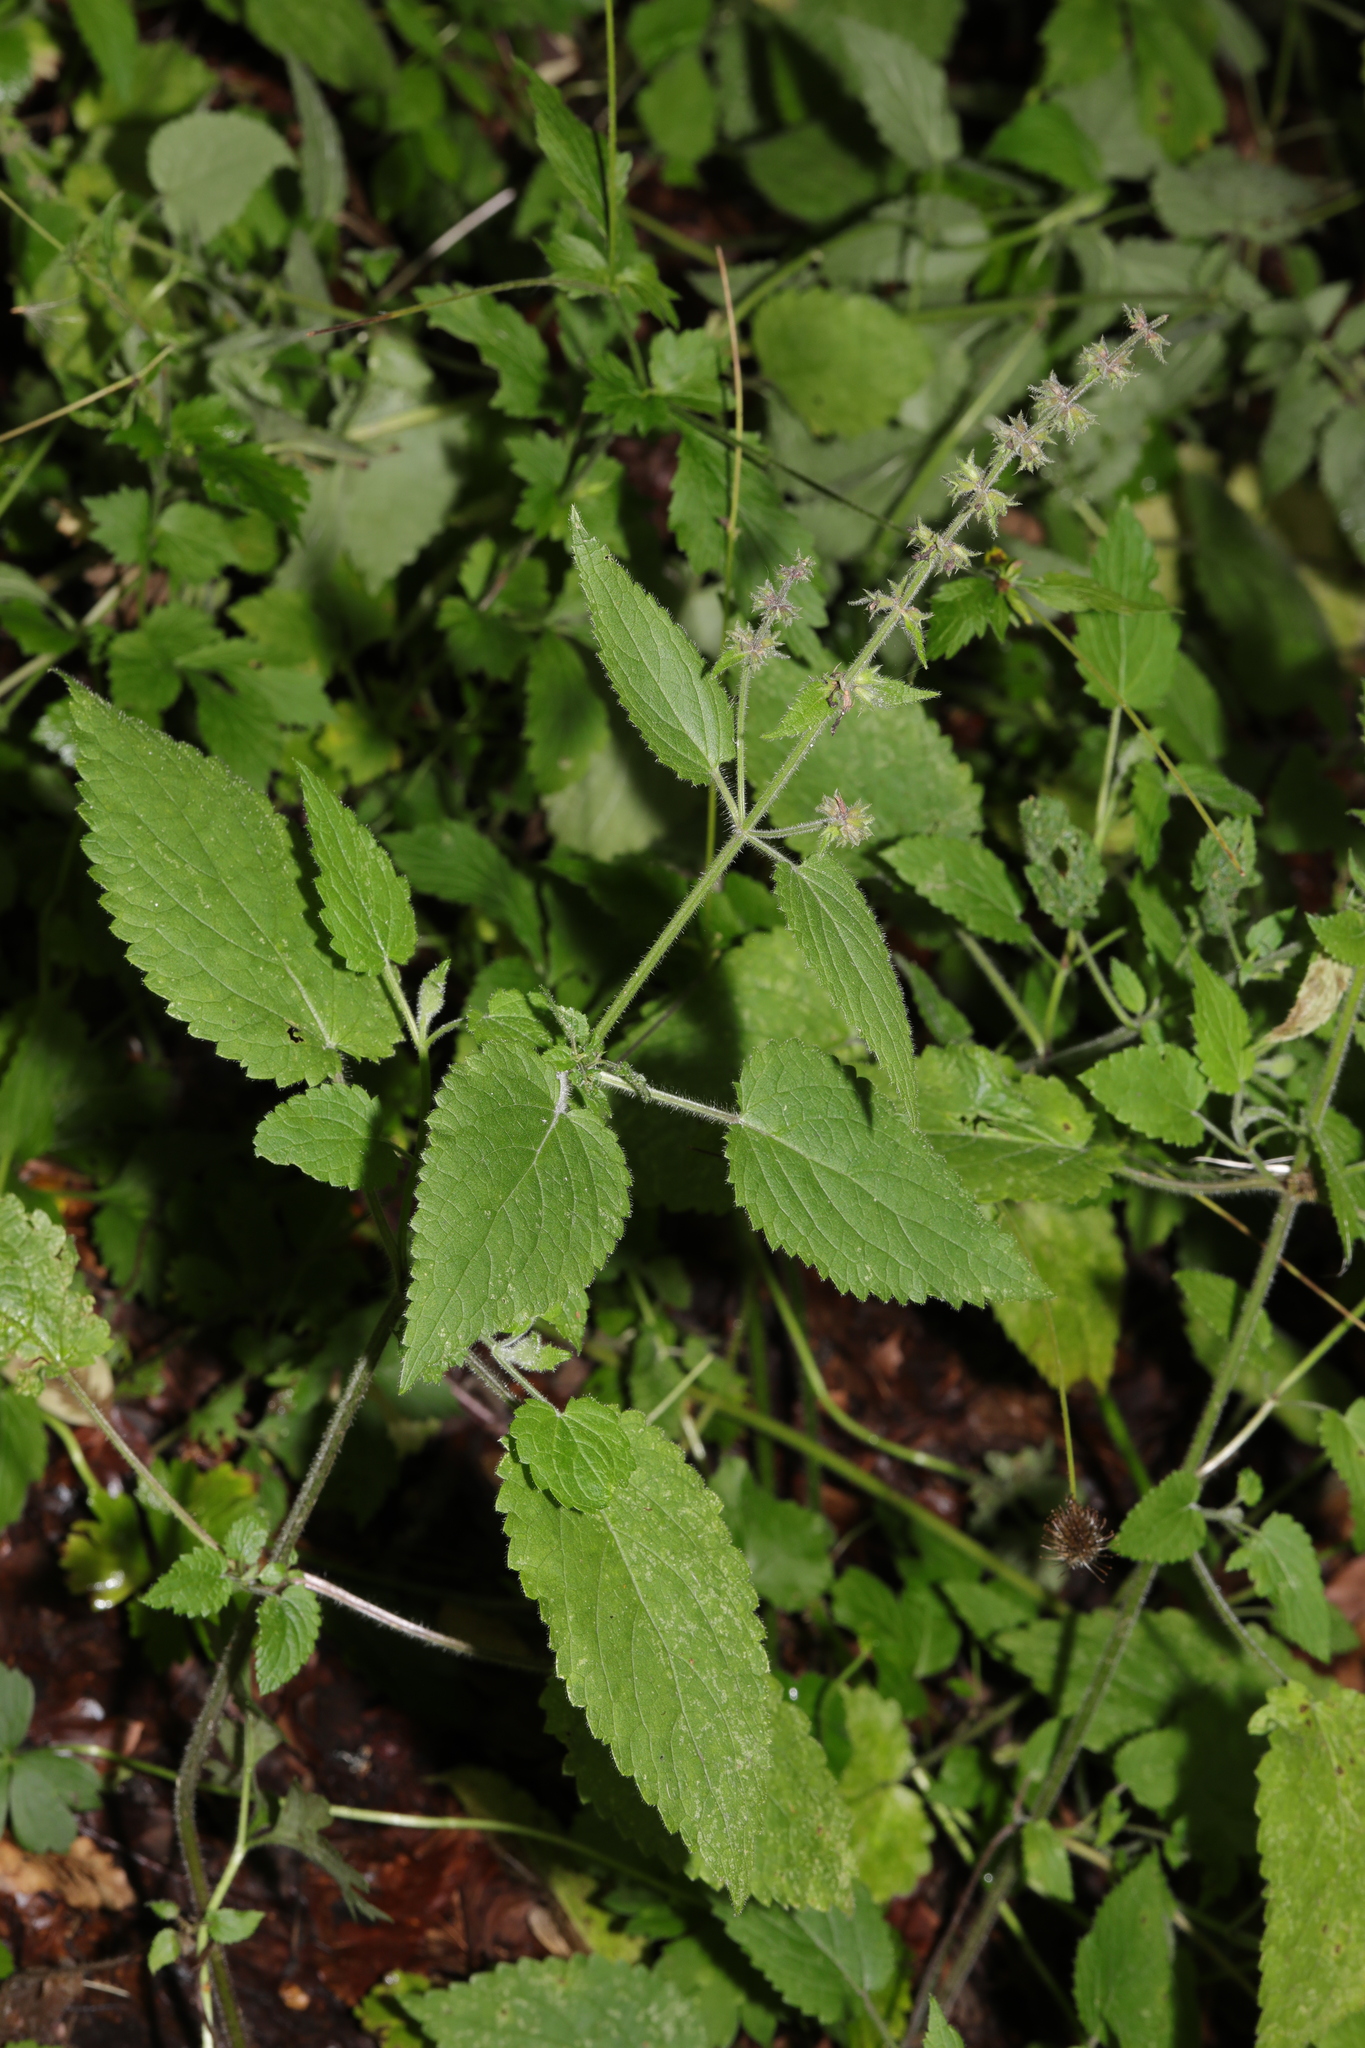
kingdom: Plantae
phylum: Tracheophyta
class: Magnoliopsida
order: Lamiales
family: Lamiaceae
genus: Stachys
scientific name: Stachys sylvatica
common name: Hedge woundwort
